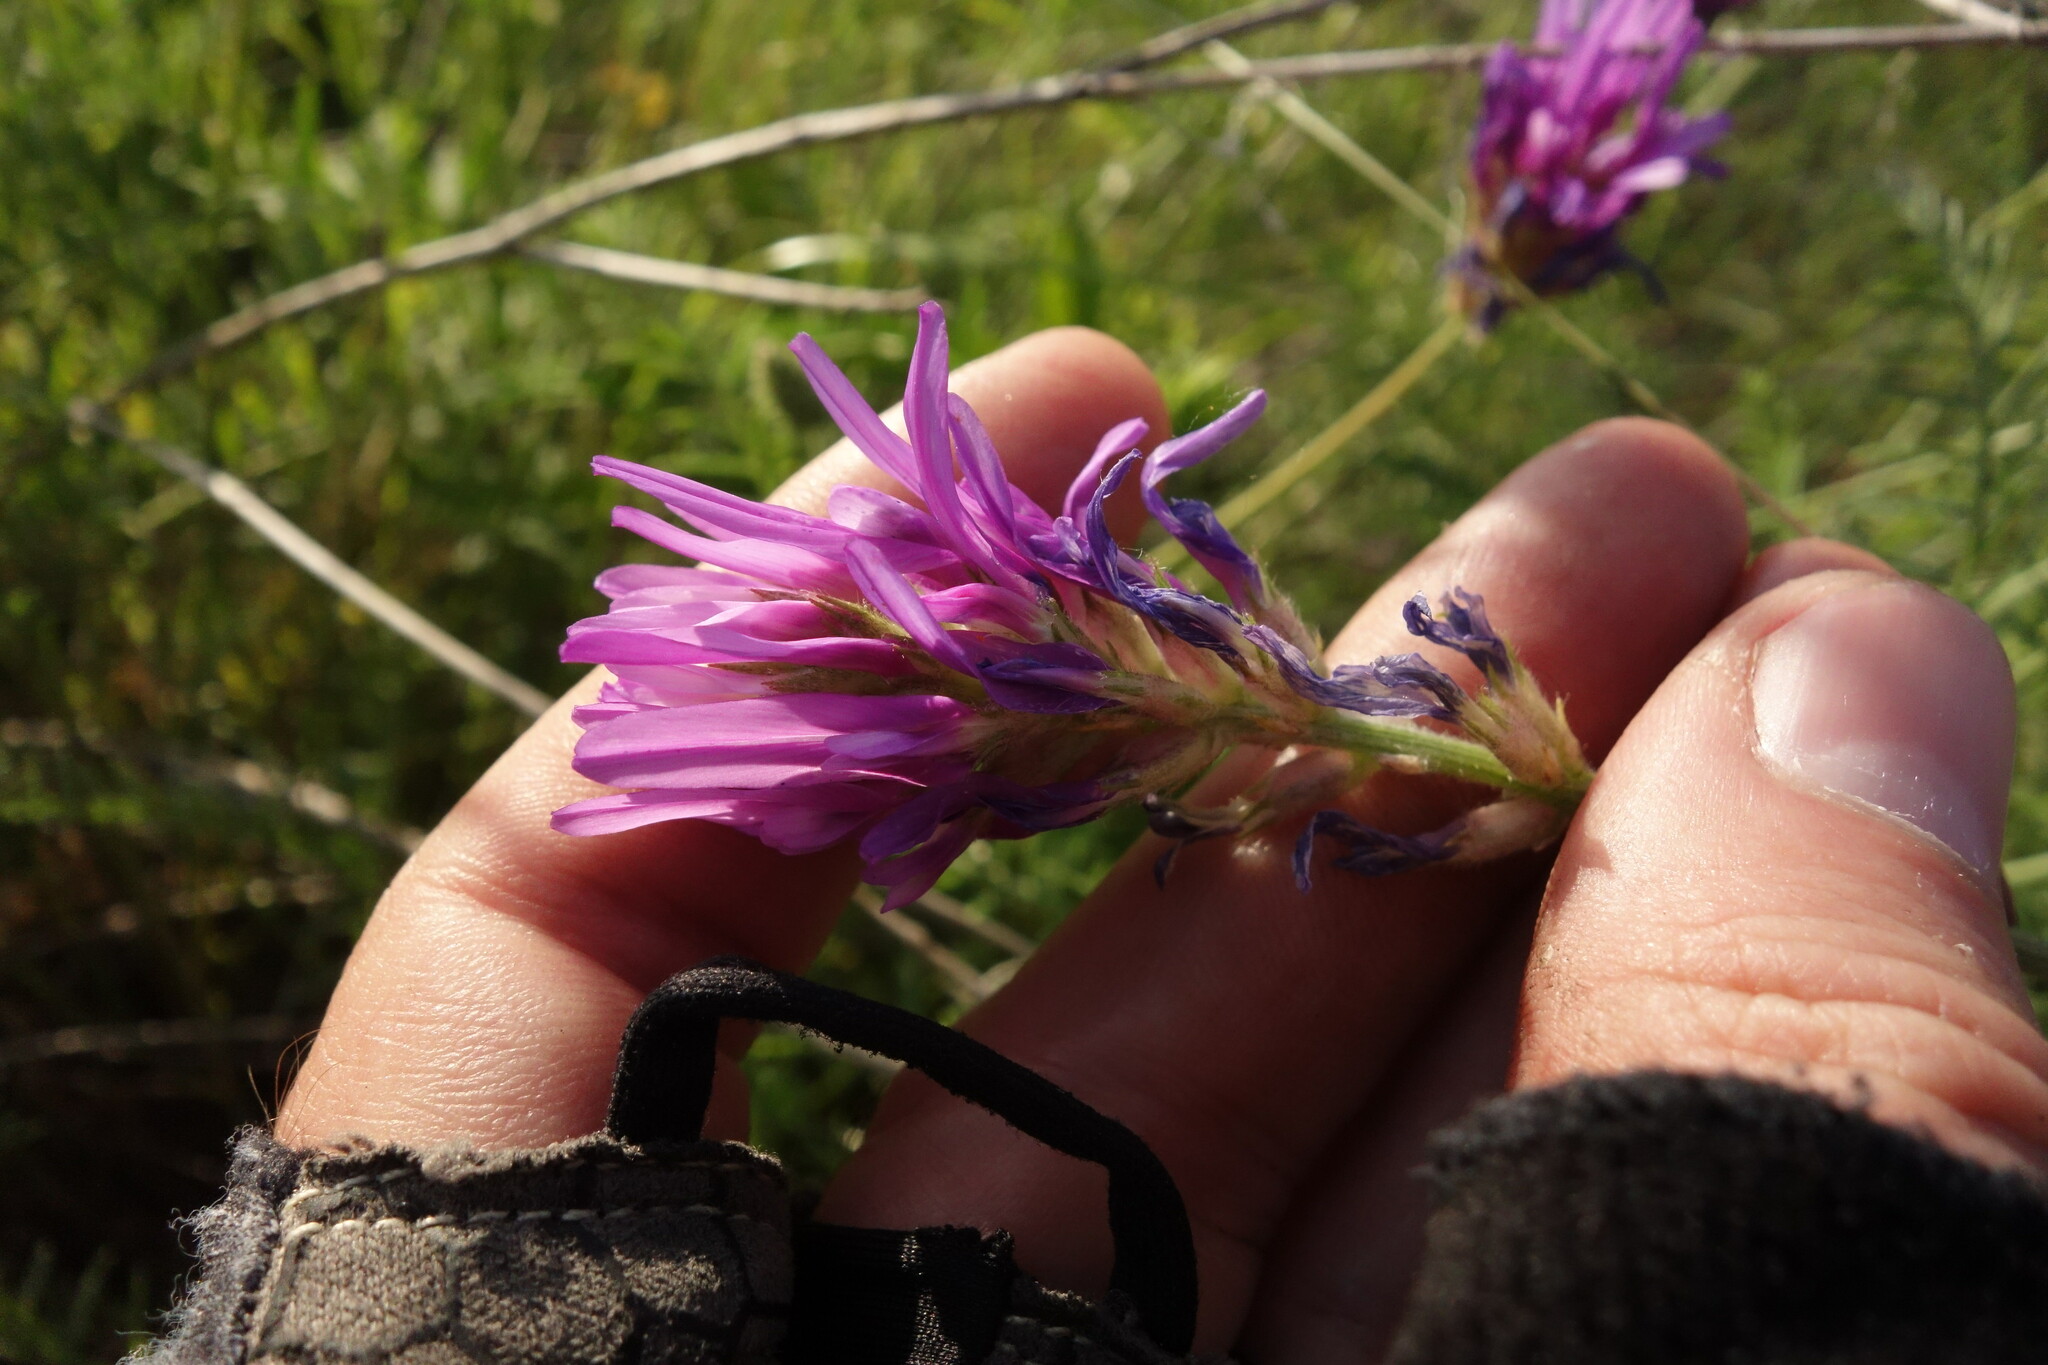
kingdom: Plantae
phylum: Tracheophyta
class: Magnoliopsida
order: Fabales
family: Fabaceae
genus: Astragalus
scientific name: Astragalus onobrychis
